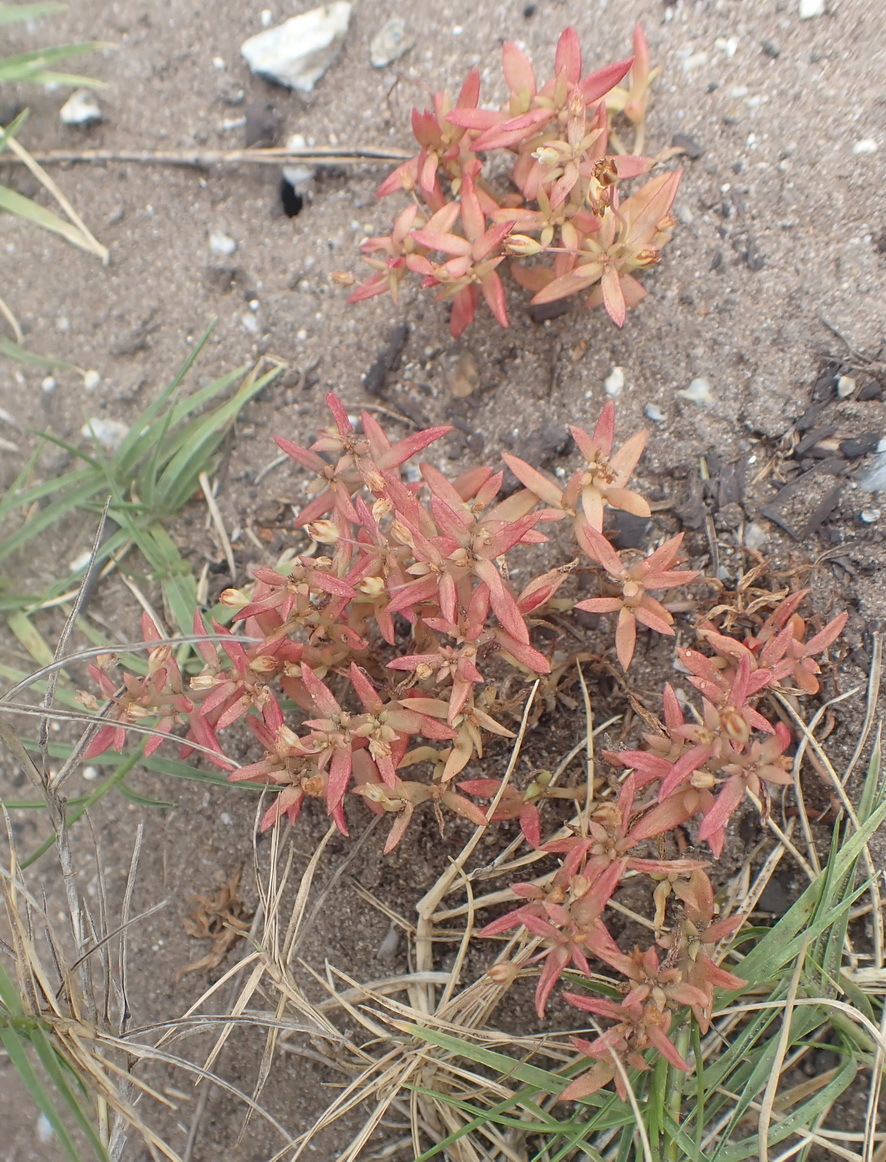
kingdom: Plantae
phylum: Tracheophyta
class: Magnoliopsida
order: Saxifragales
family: Crassulaceae
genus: Crassula
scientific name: Crassula expansa
